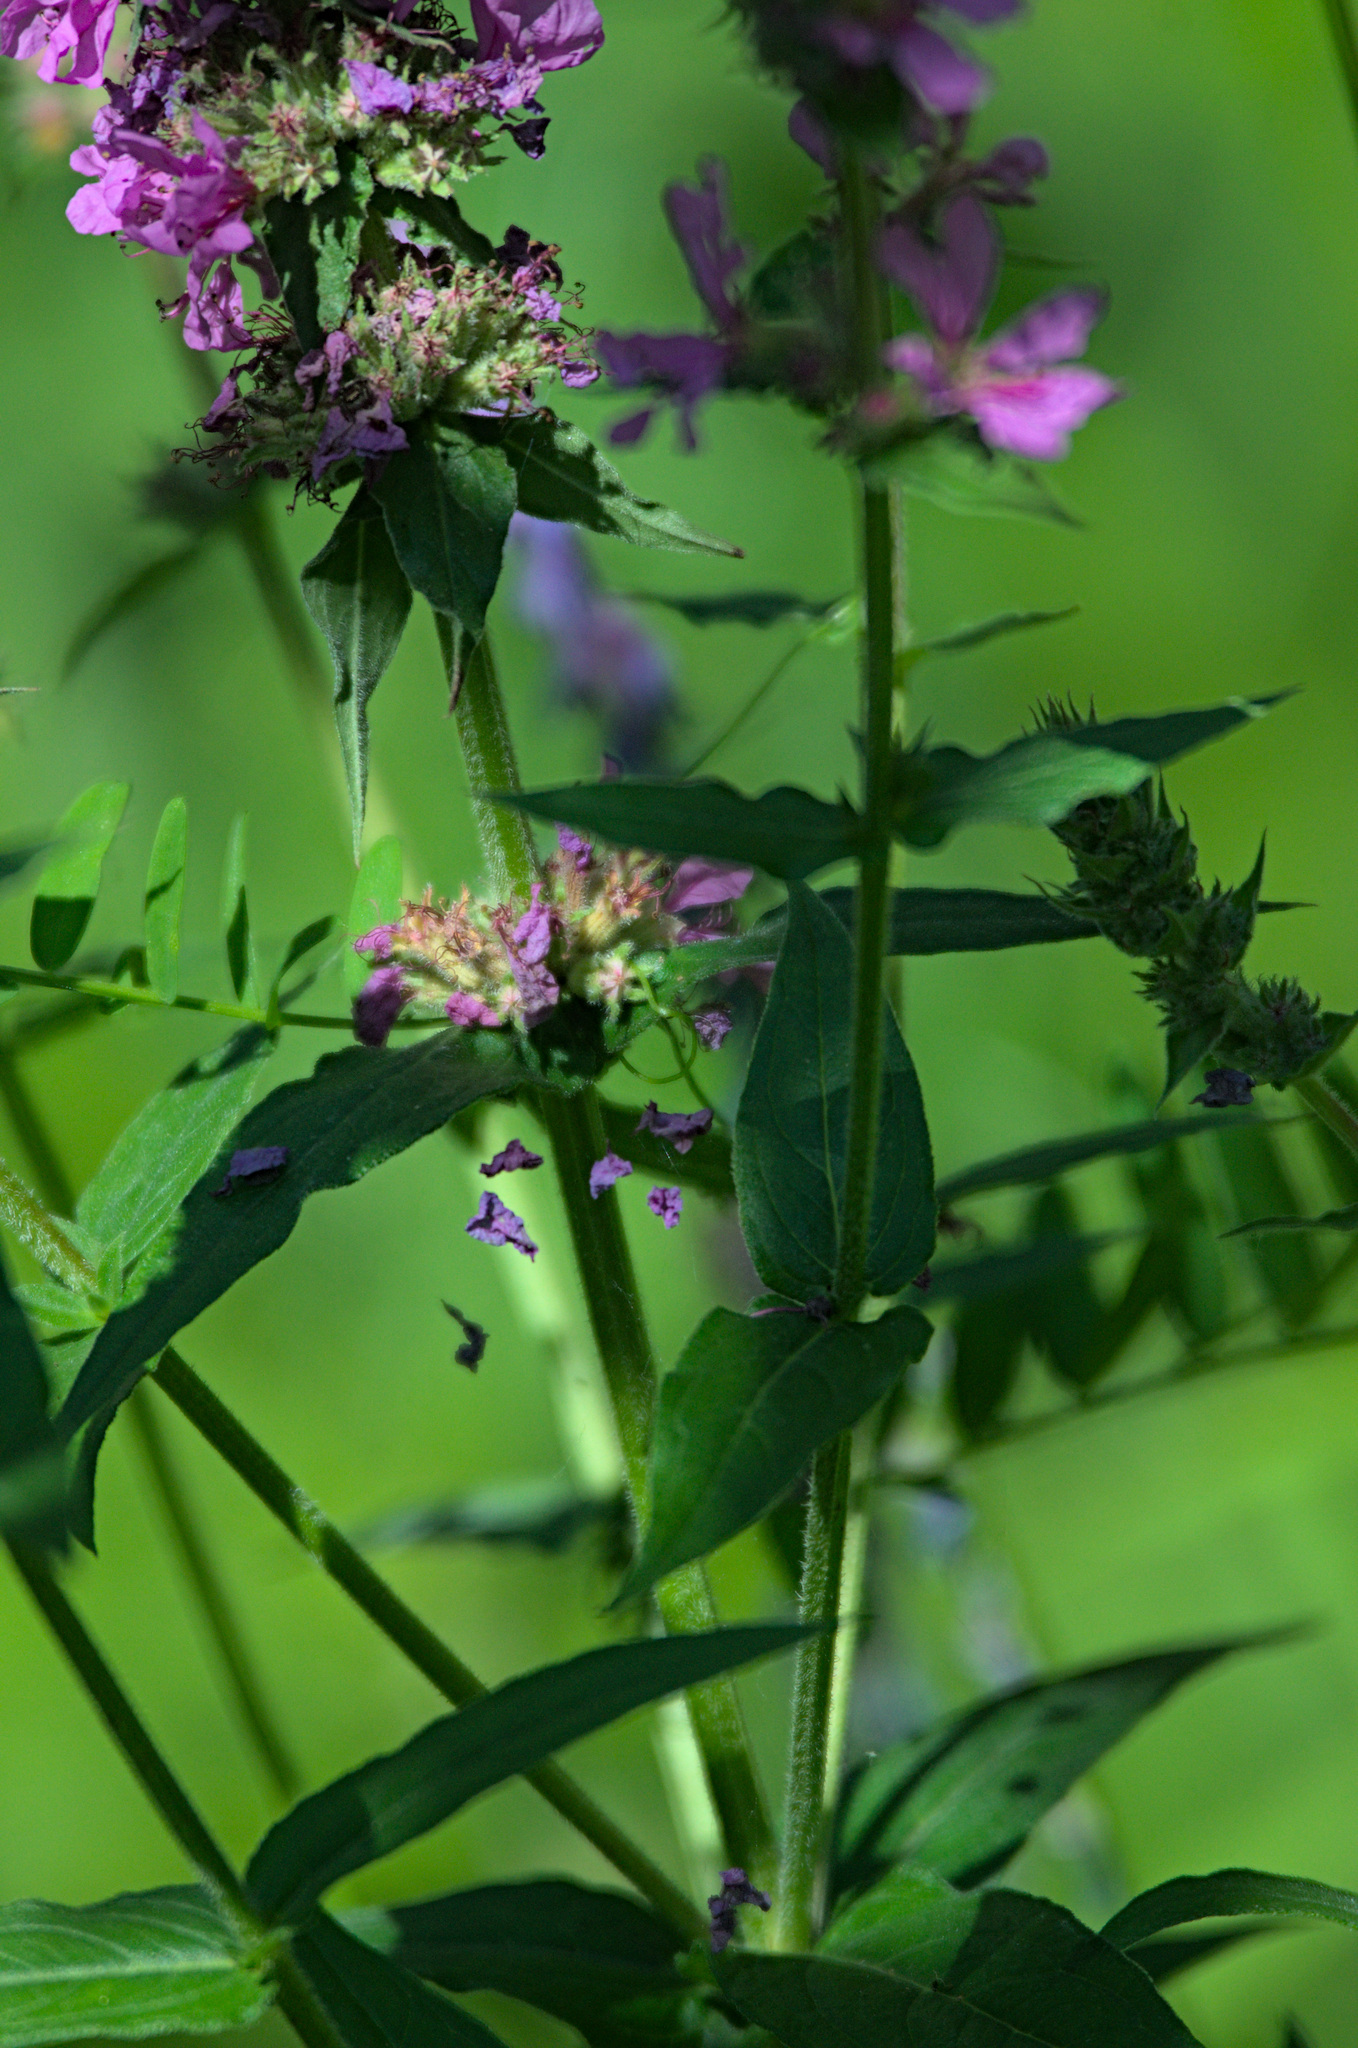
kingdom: Plantae
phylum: Tracheophyta
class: Magnoliopsida
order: Myrtales
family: Lythraceae
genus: Lythrum
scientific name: Lythrum salicaria
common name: Purple loosestrife
